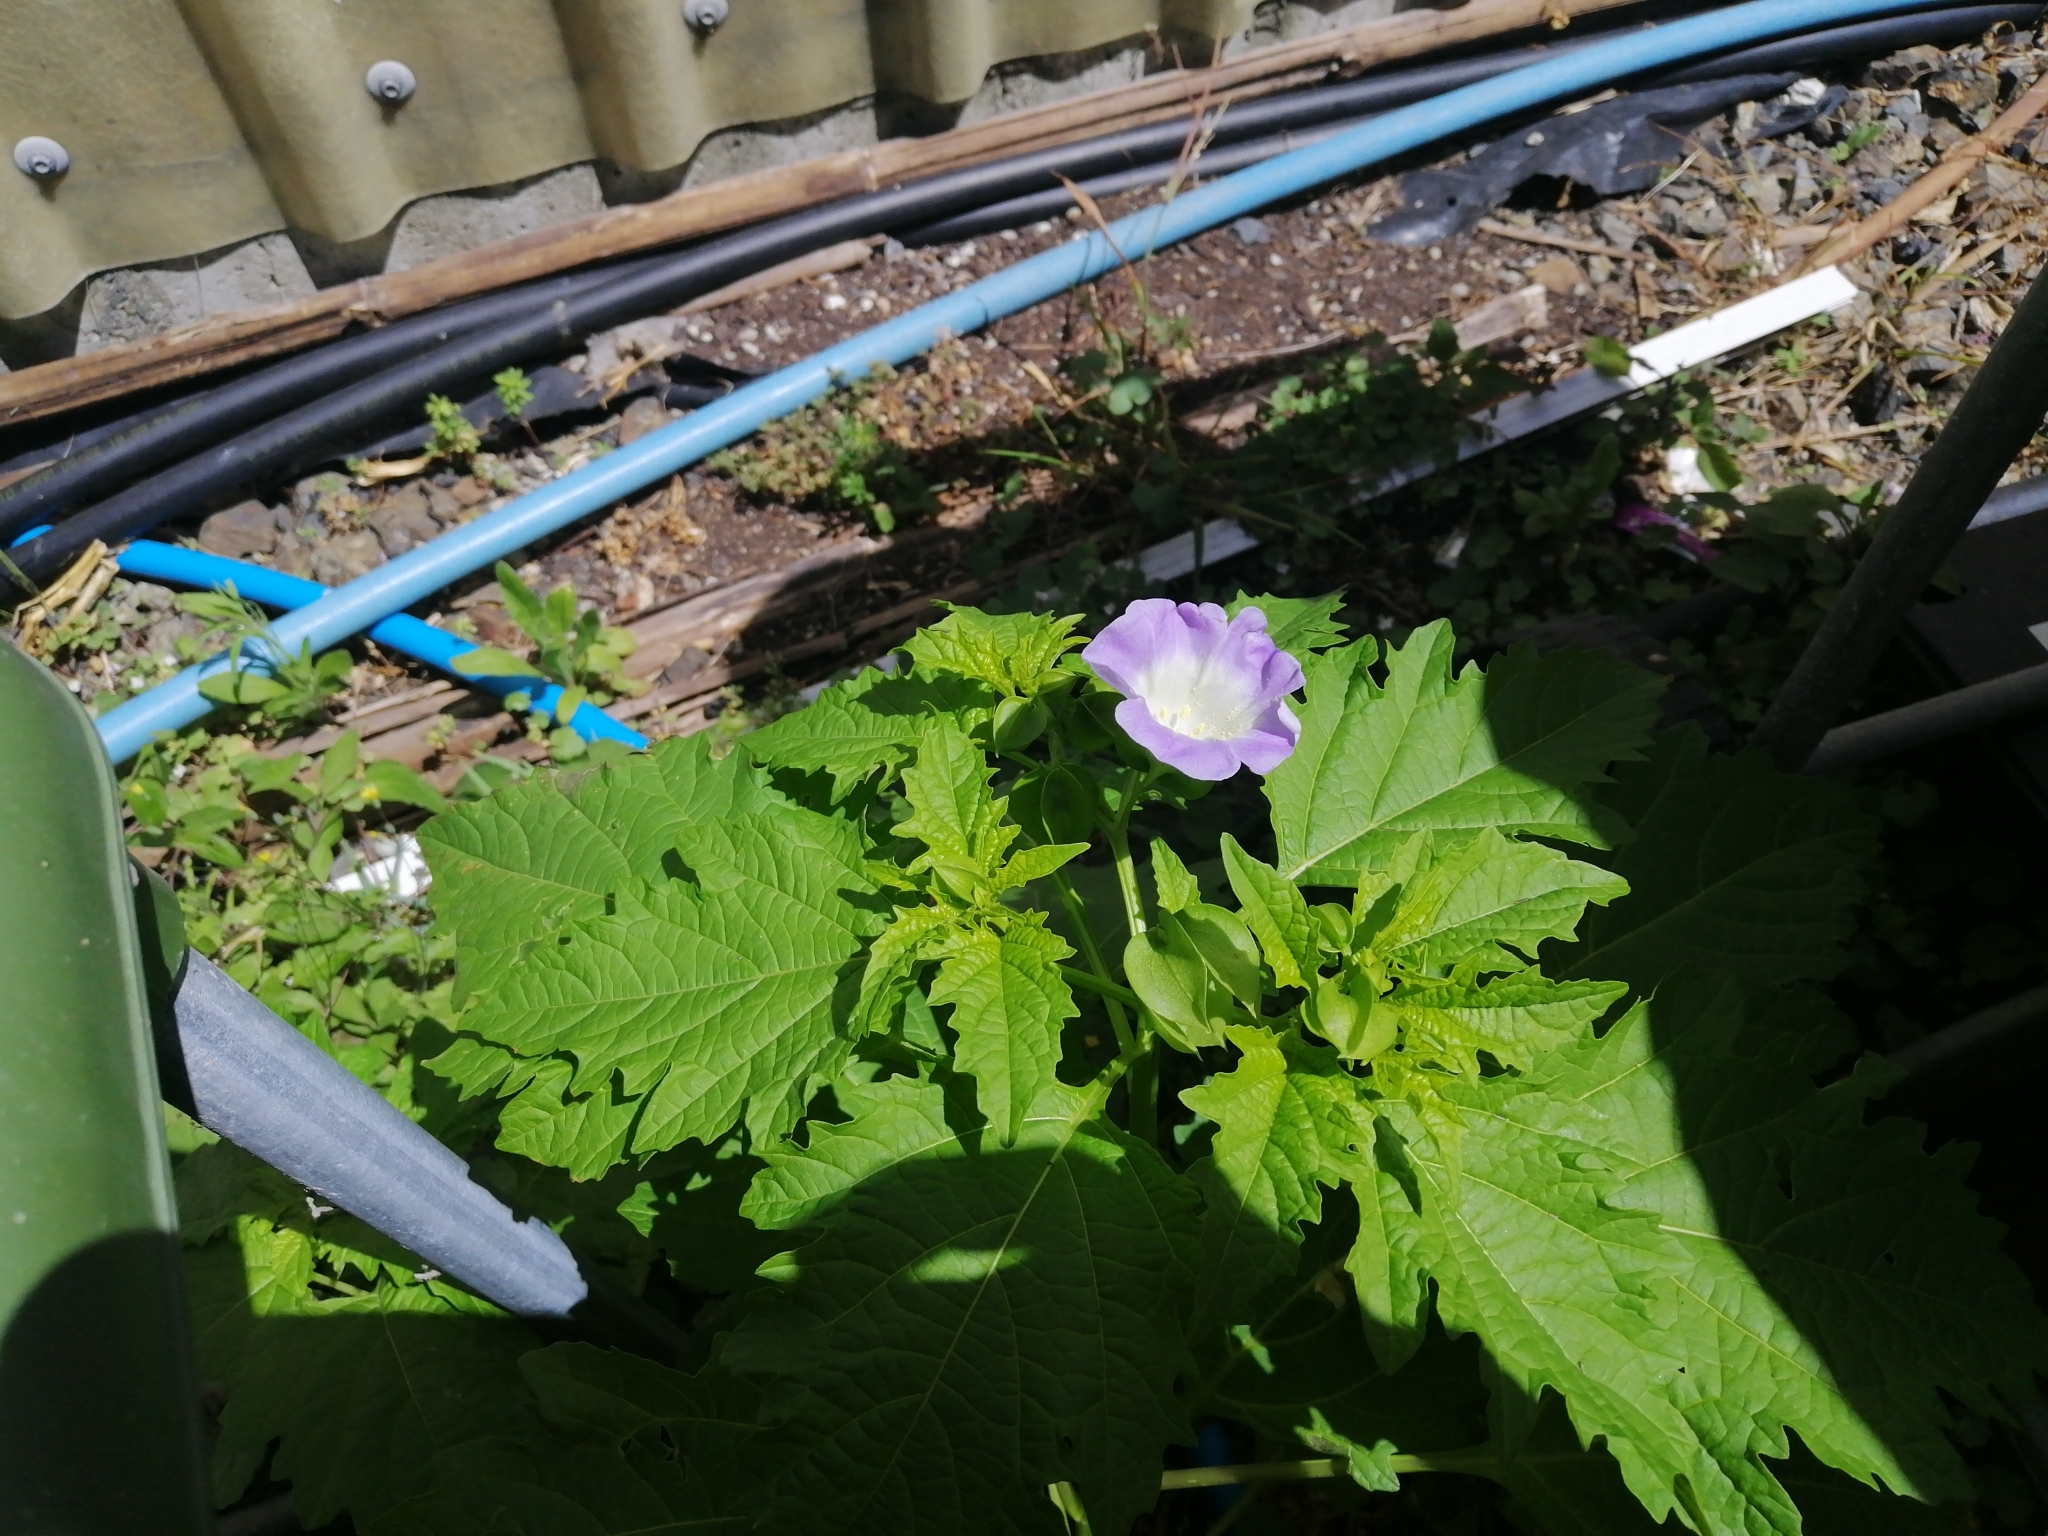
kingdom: Plantae
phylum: Tracheophyta
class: Magnoliopsida
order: Solanales
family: Solanaceae
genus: Nicandra
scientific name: Nicandra physalodes
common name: Apple-of-peru
